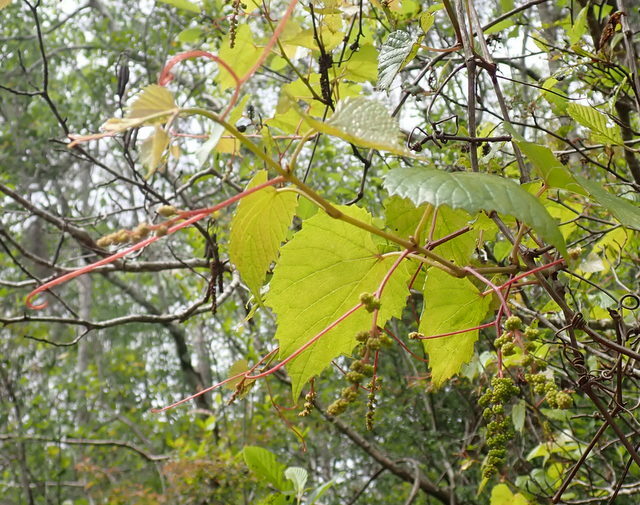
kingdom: Plantae
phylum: Tracheophyta
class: Magnoliopsida
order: Vitales
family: Vitaceae
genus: Vitis
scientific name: Vitis vulpina
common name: Frost grape
